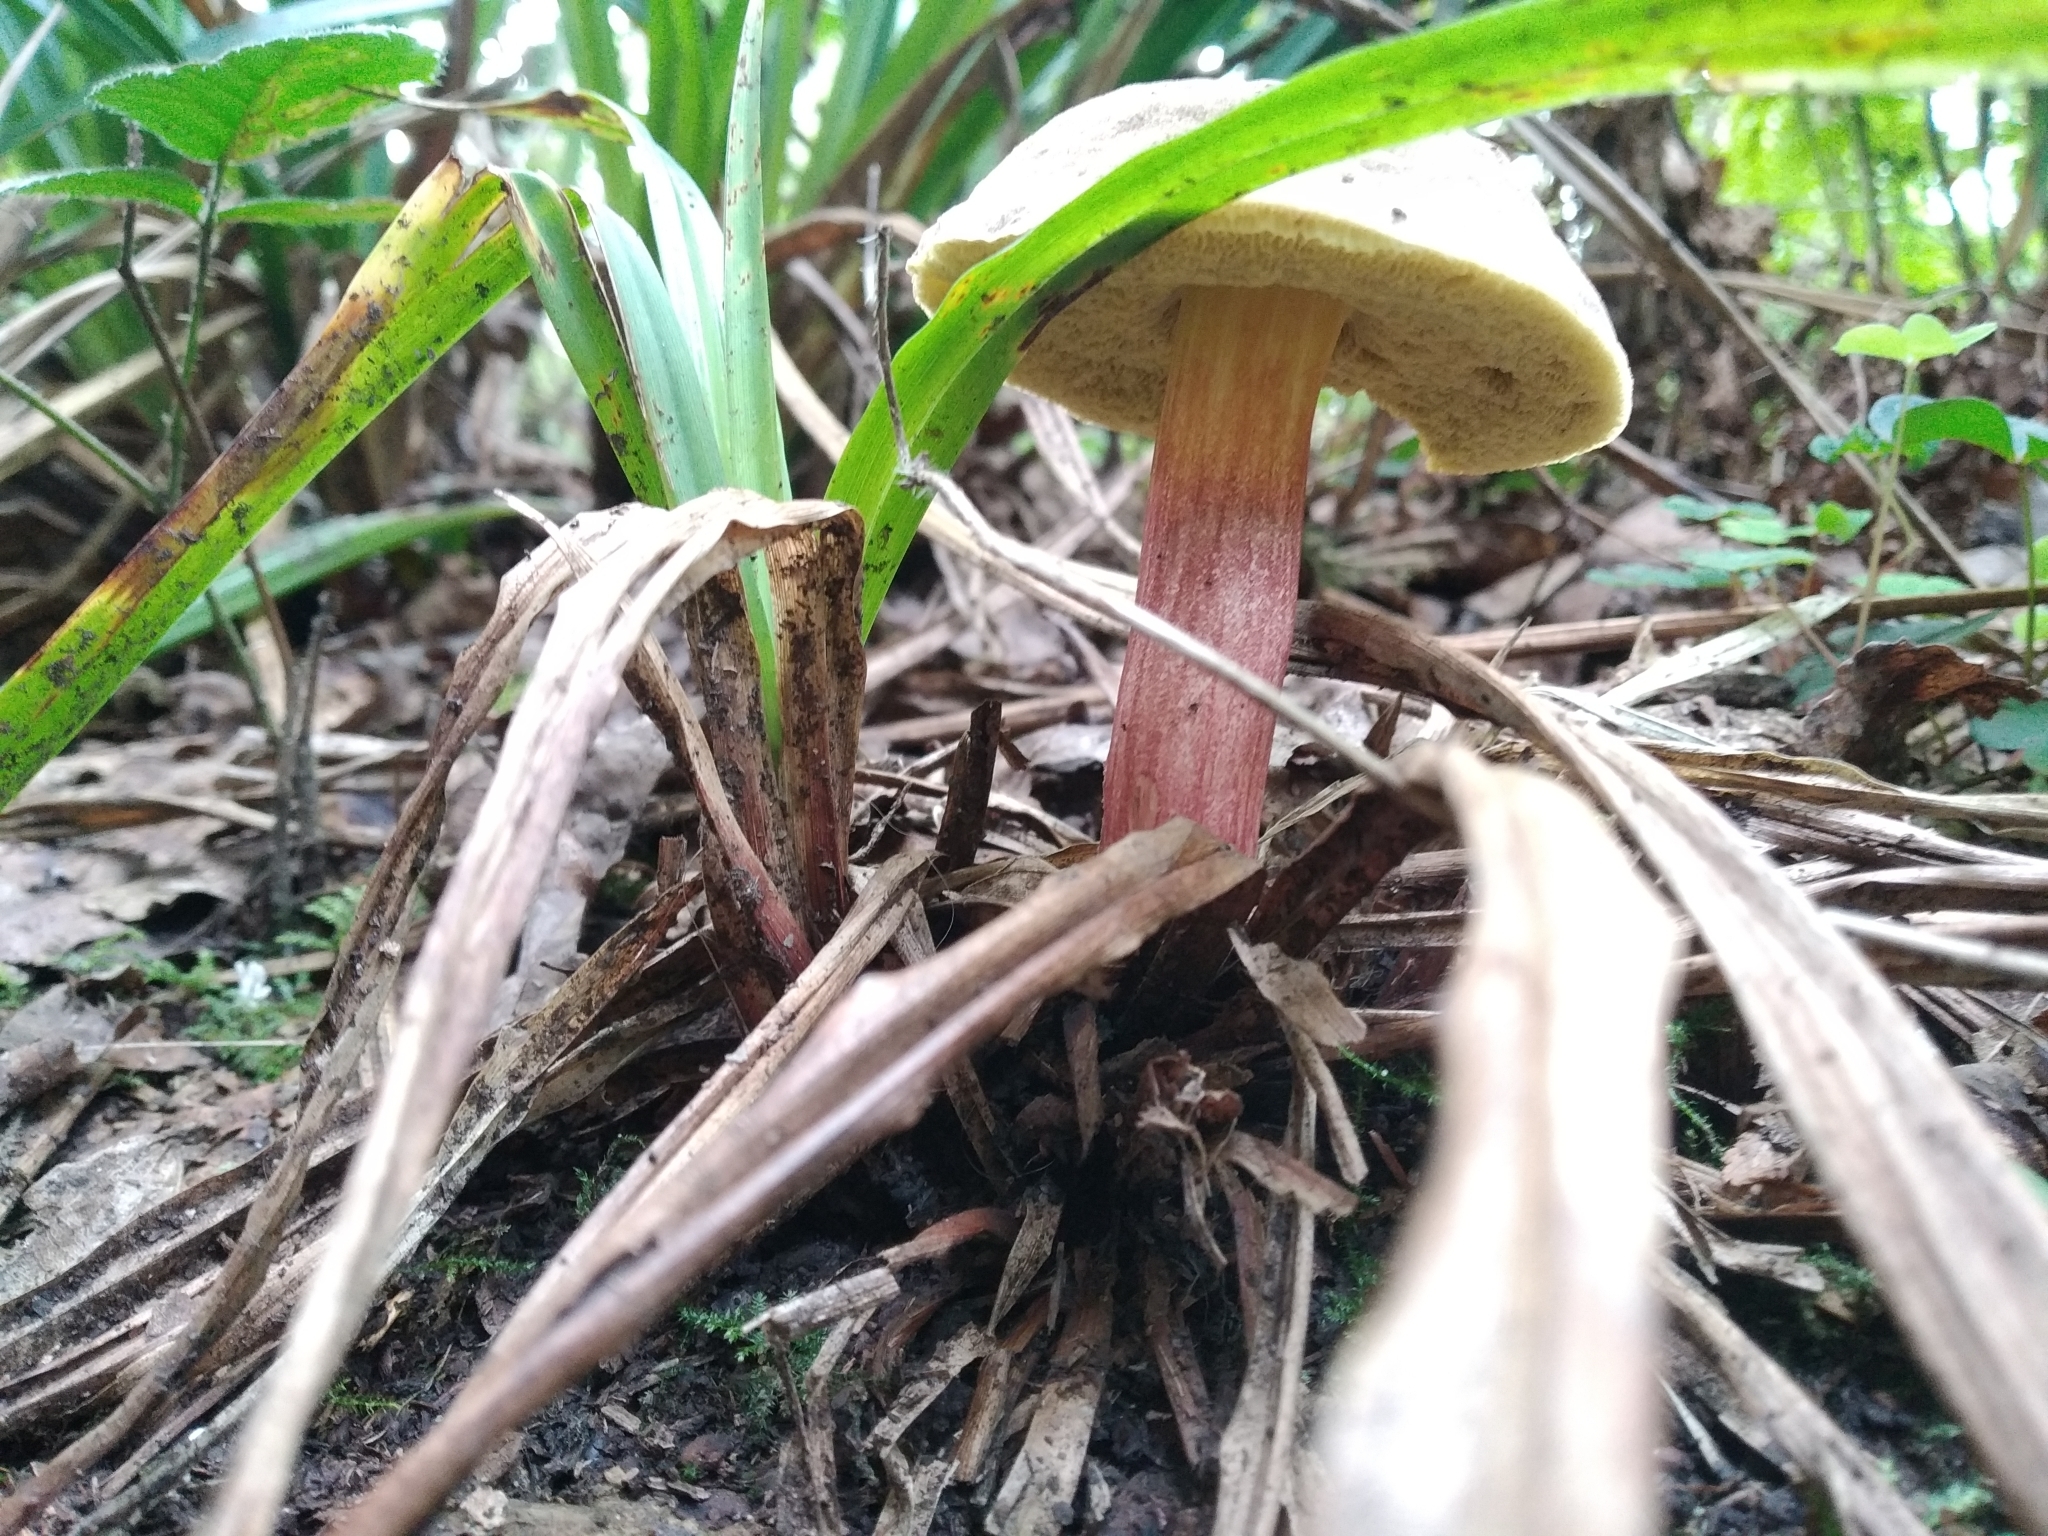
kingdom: Fungi
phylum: Basidiomycota
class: Agaricomycetes
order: Boletales
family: Boletaceae
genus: Xerocomellus
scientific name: Xerocomellus chrysenteron
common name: Red-cracking bolete
